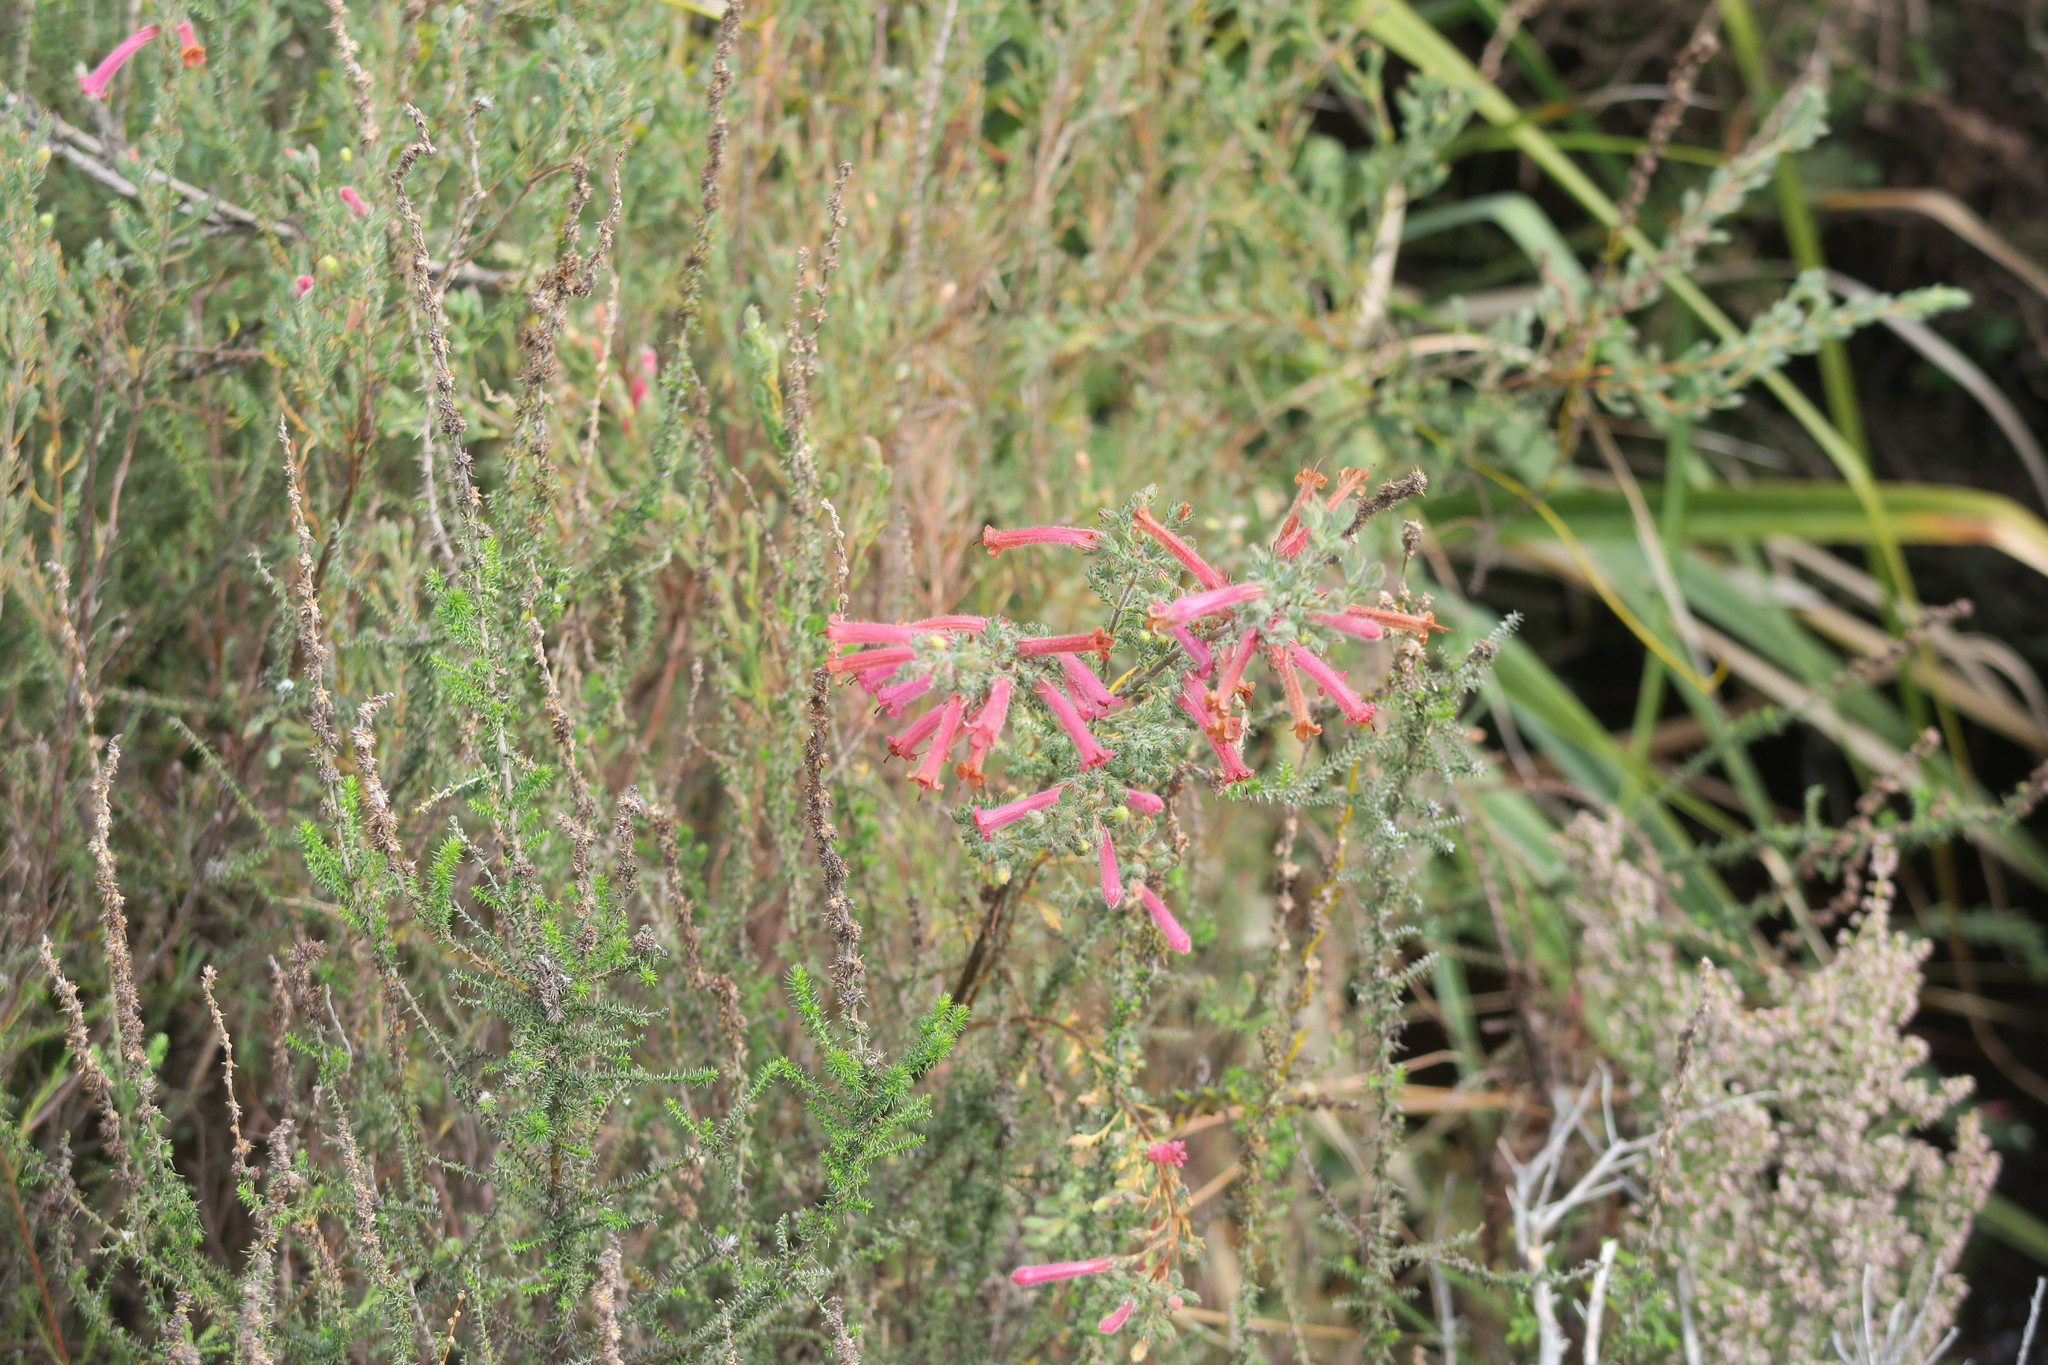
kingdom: Plantae
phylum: Tracheophyta
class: Magnoliopsida
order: Ericales
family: Ericaceae
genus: Erica
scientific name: Erica curviflora
